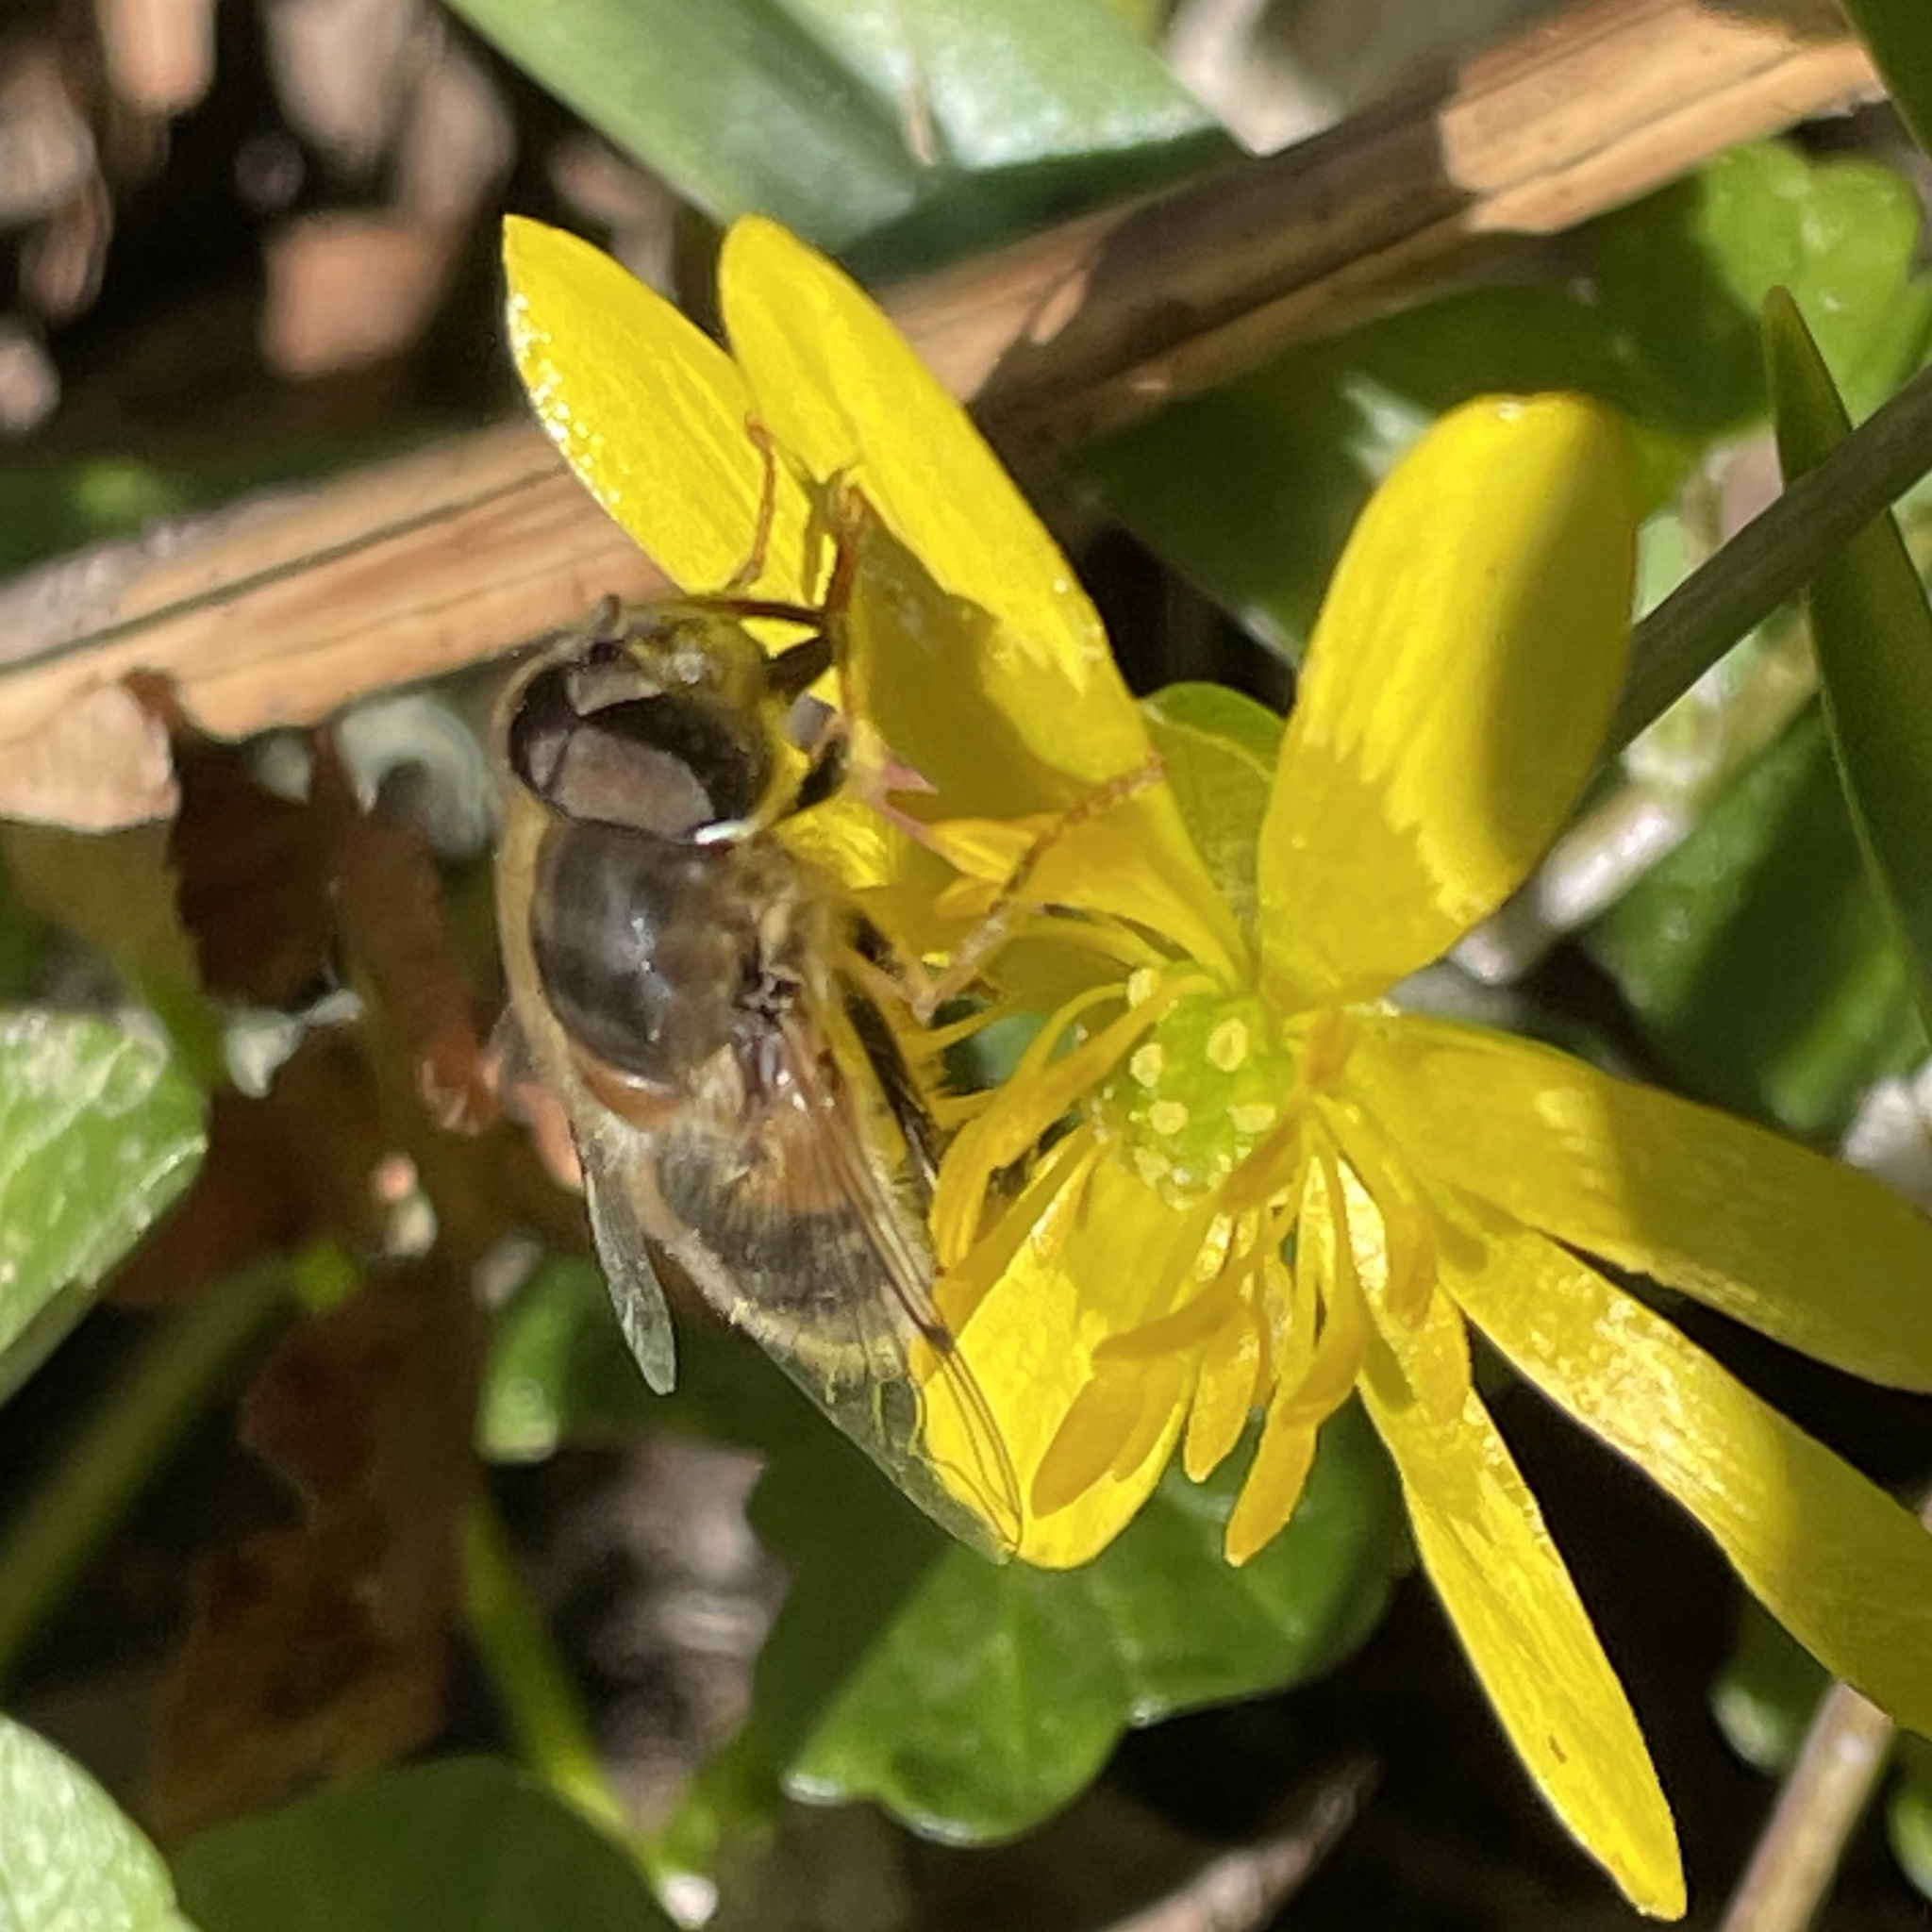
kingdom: Animalia
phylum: Arthropoda
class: Insecta
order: Diptera
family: Syrphidae
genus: Eristalis
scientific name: Eristalis pertinax
